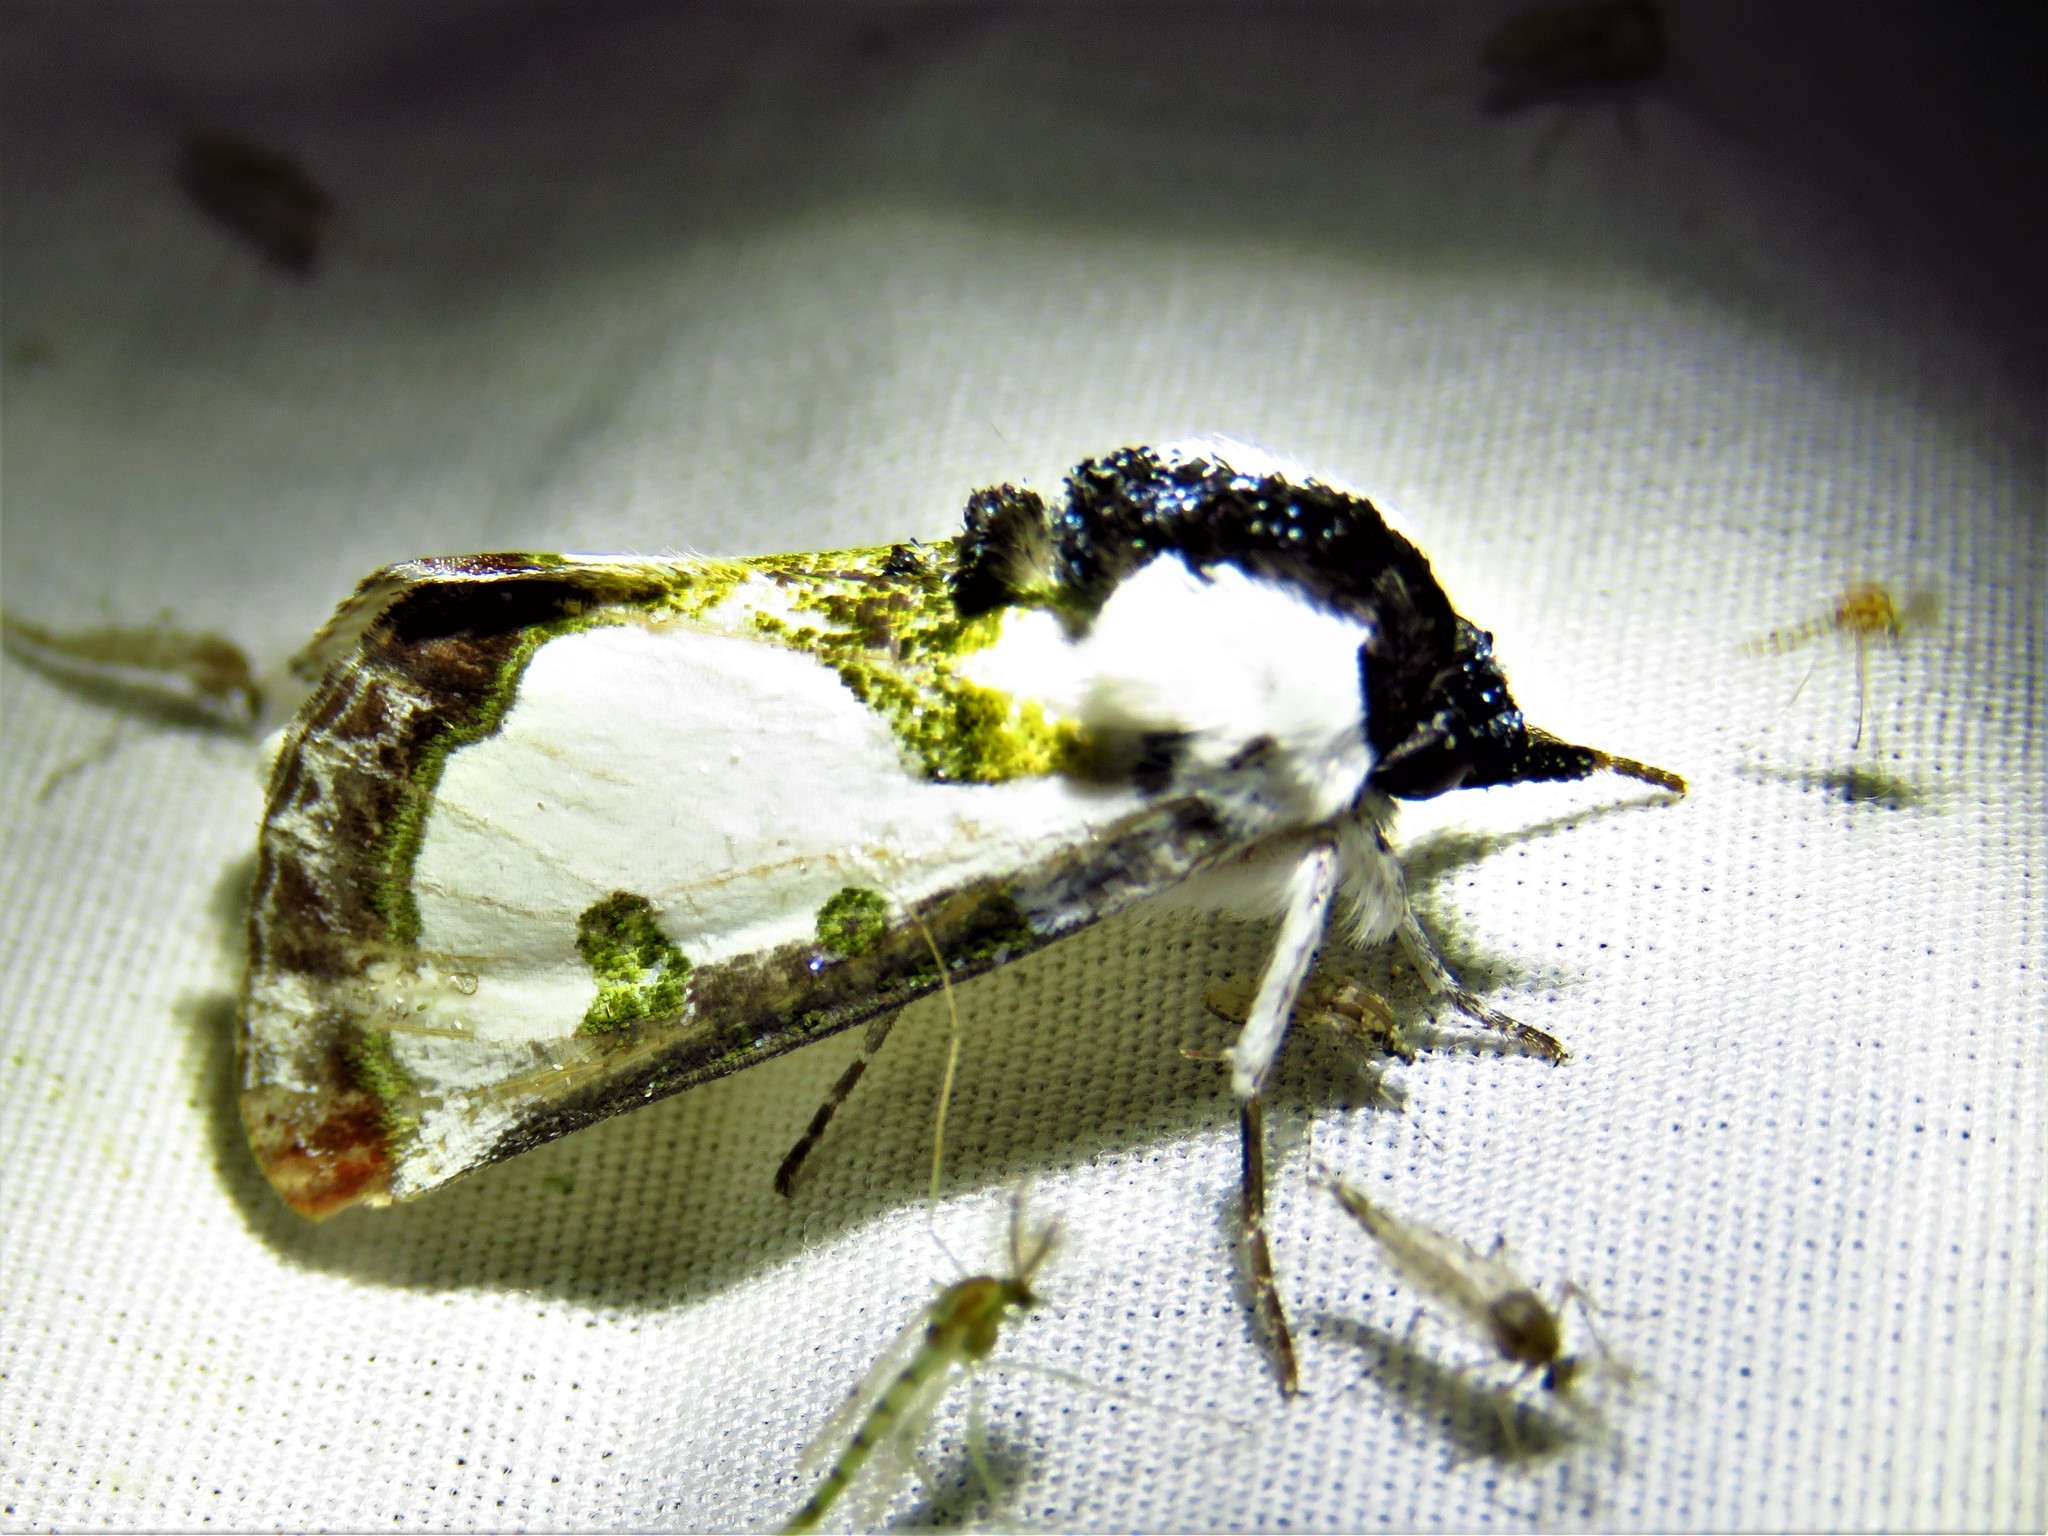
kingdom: Animalia
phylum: Arthropoda
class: Insecta
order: Lepidoptera
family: Noctuidae
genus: Xerociris
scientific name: Xerociris wilsonii
